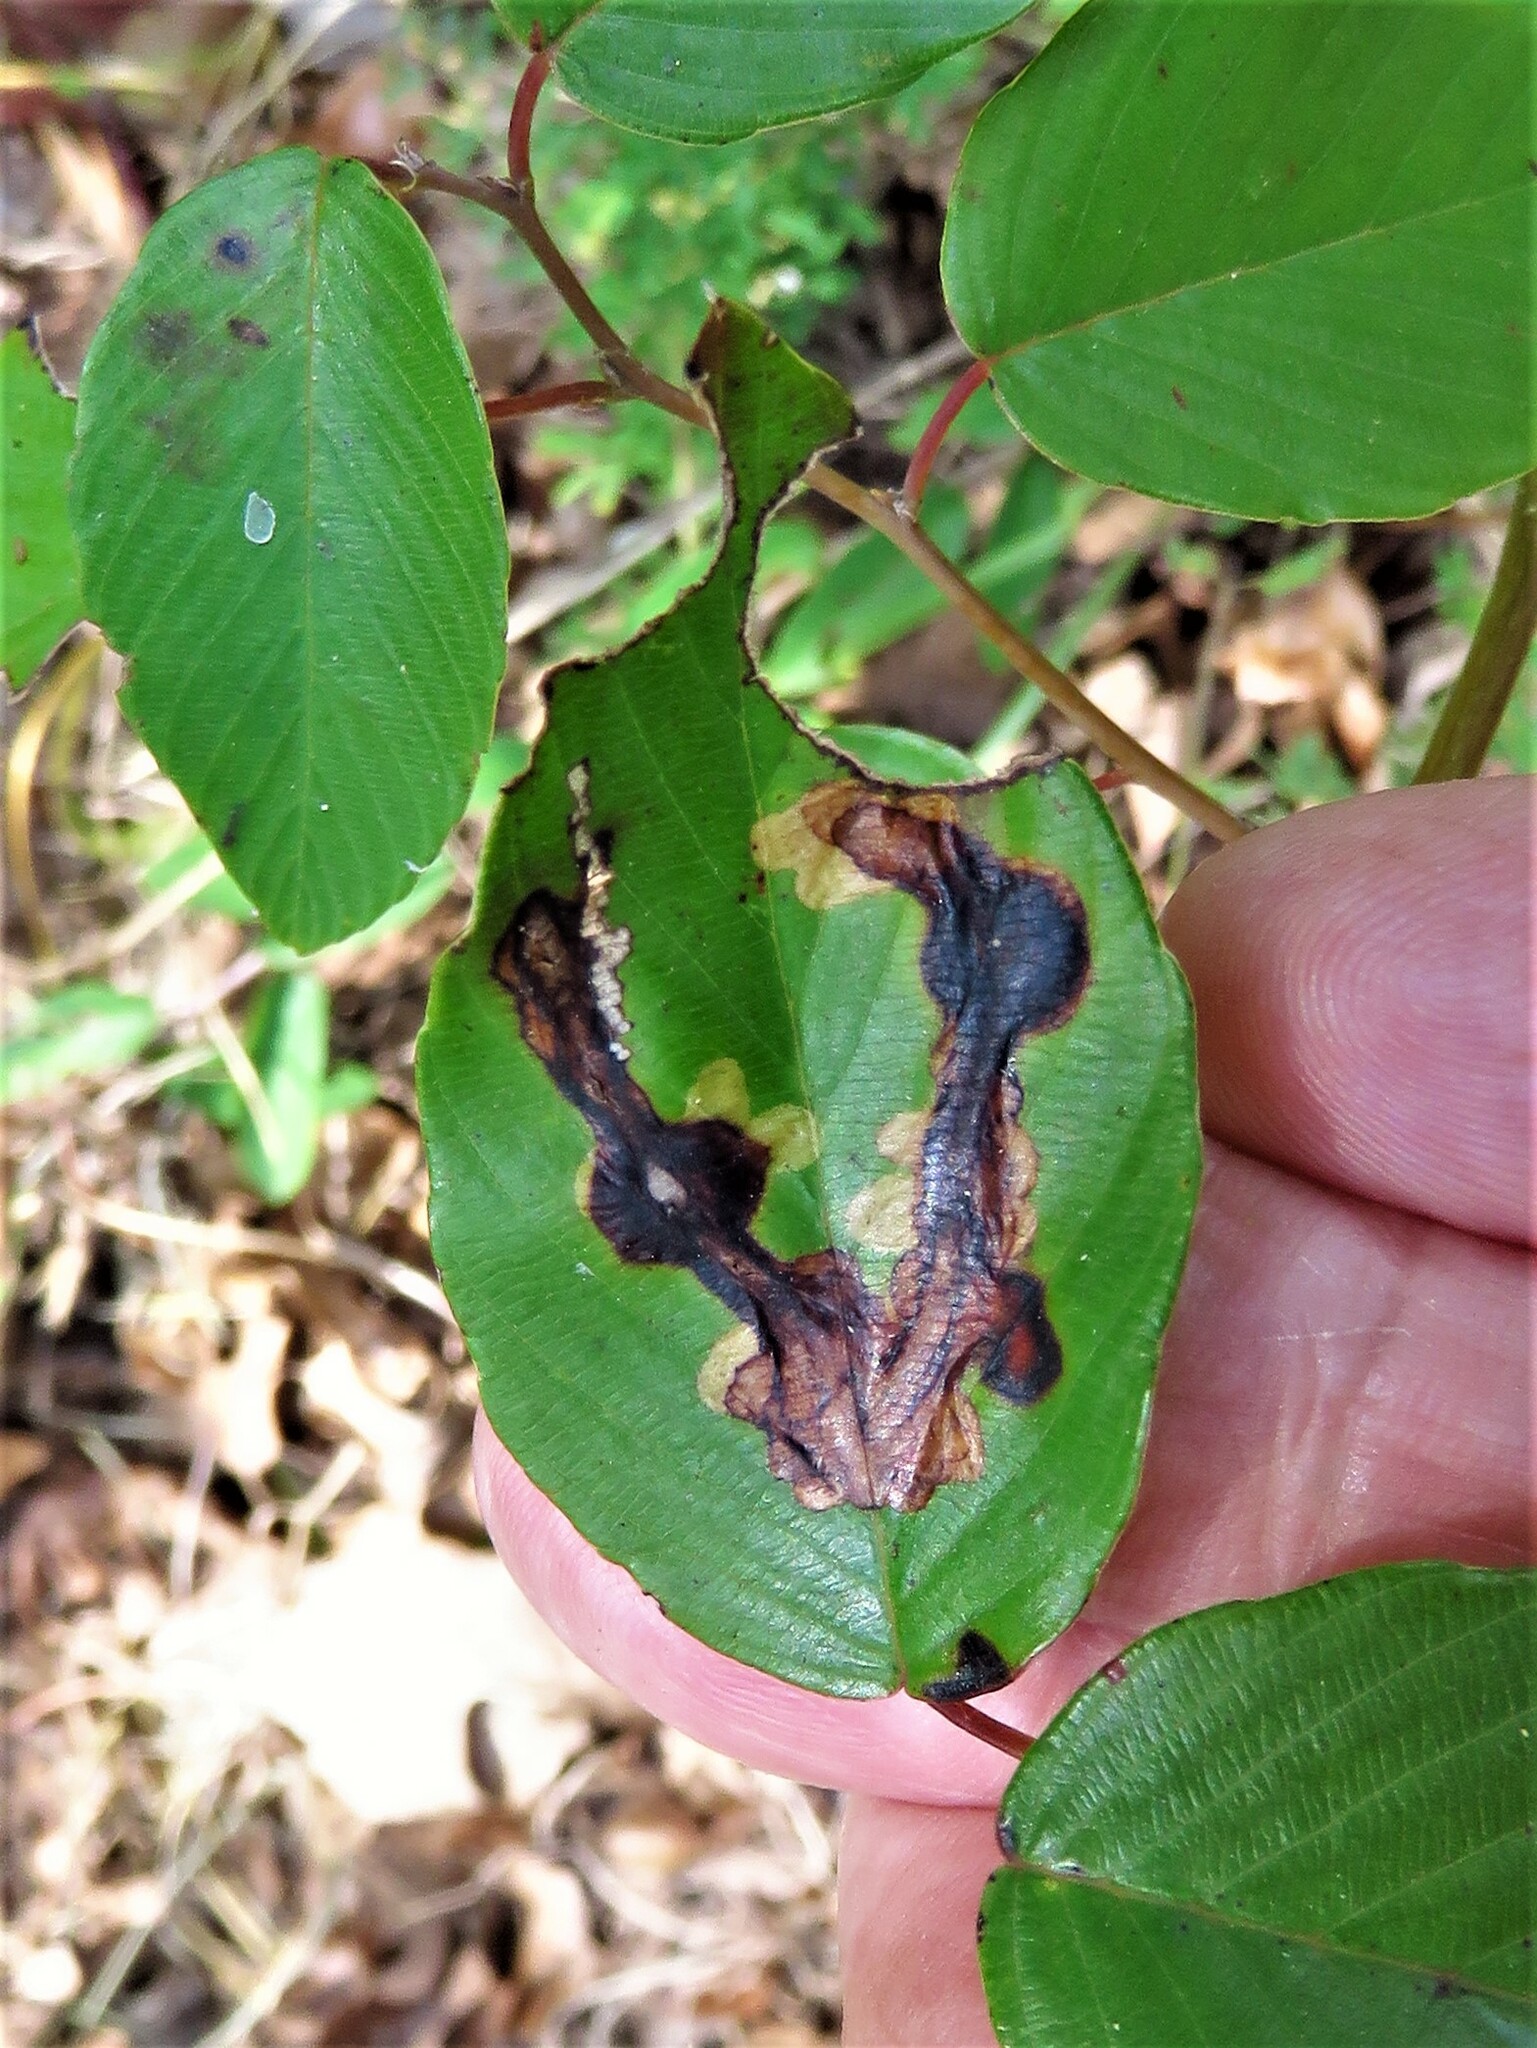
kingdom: Animalia
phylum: Arthropoda
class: Insecta
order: Coleoptera
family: Curculionidae
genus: Tachygonus
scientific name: Tachygonus fulvipes
